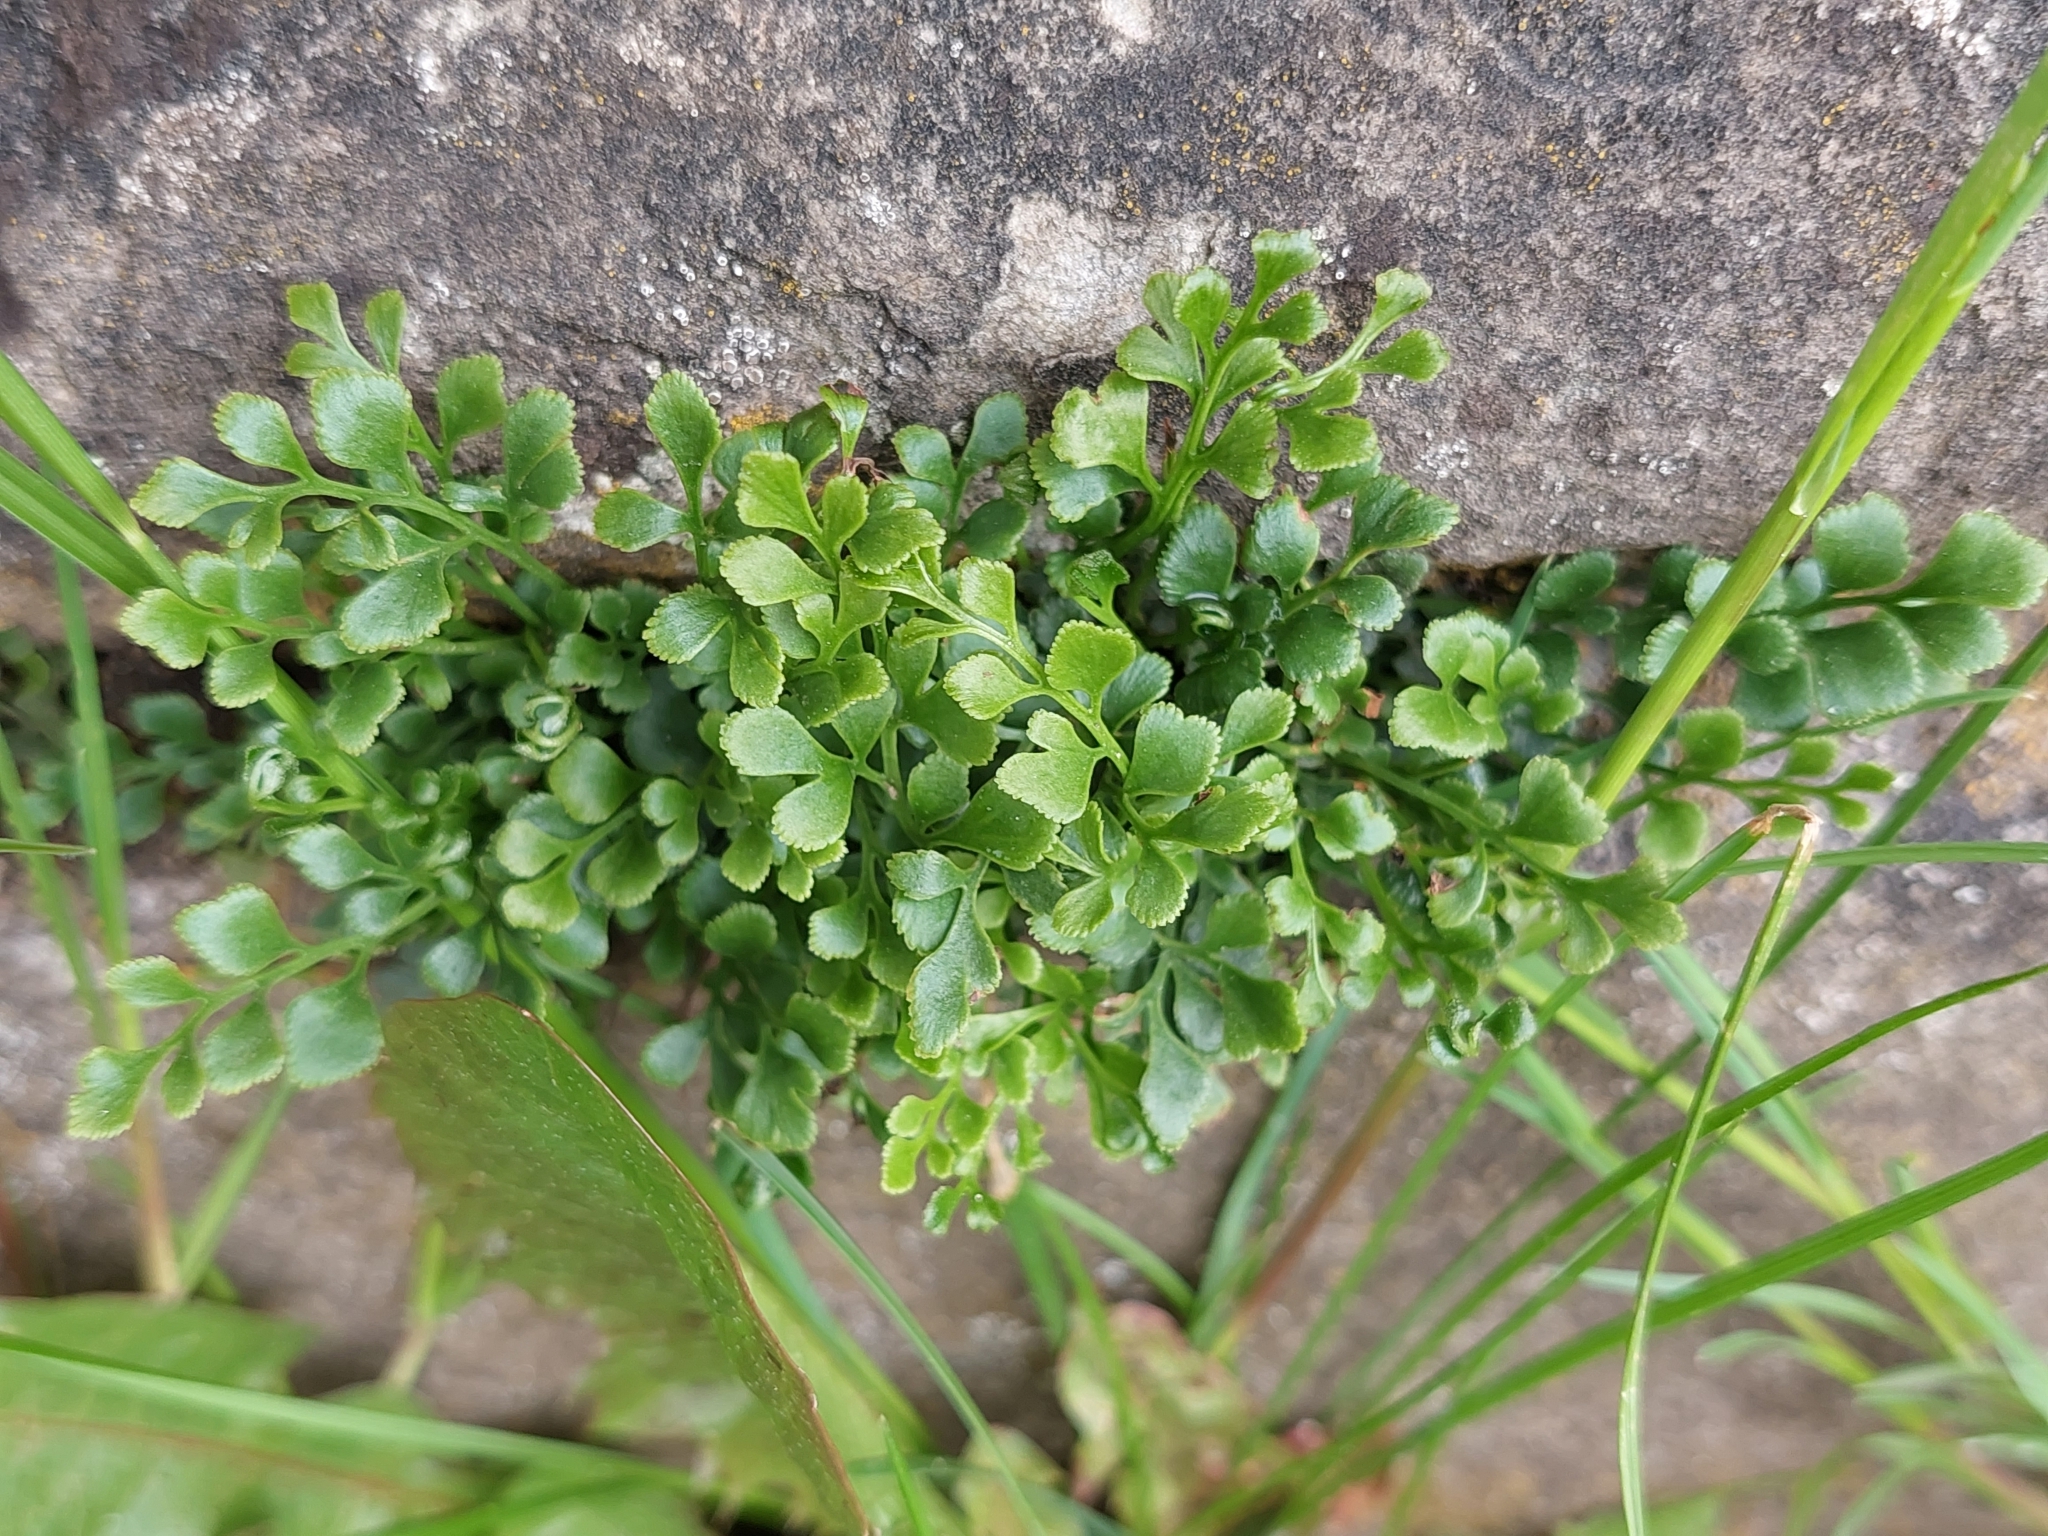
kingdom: Plantae
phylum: Tracheophyta
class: Polypodiopsida
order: Polypodiales
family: Aspleniaceae
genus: Asplenium
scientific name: Asplenium ruta-muraria
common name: Wall-rue
